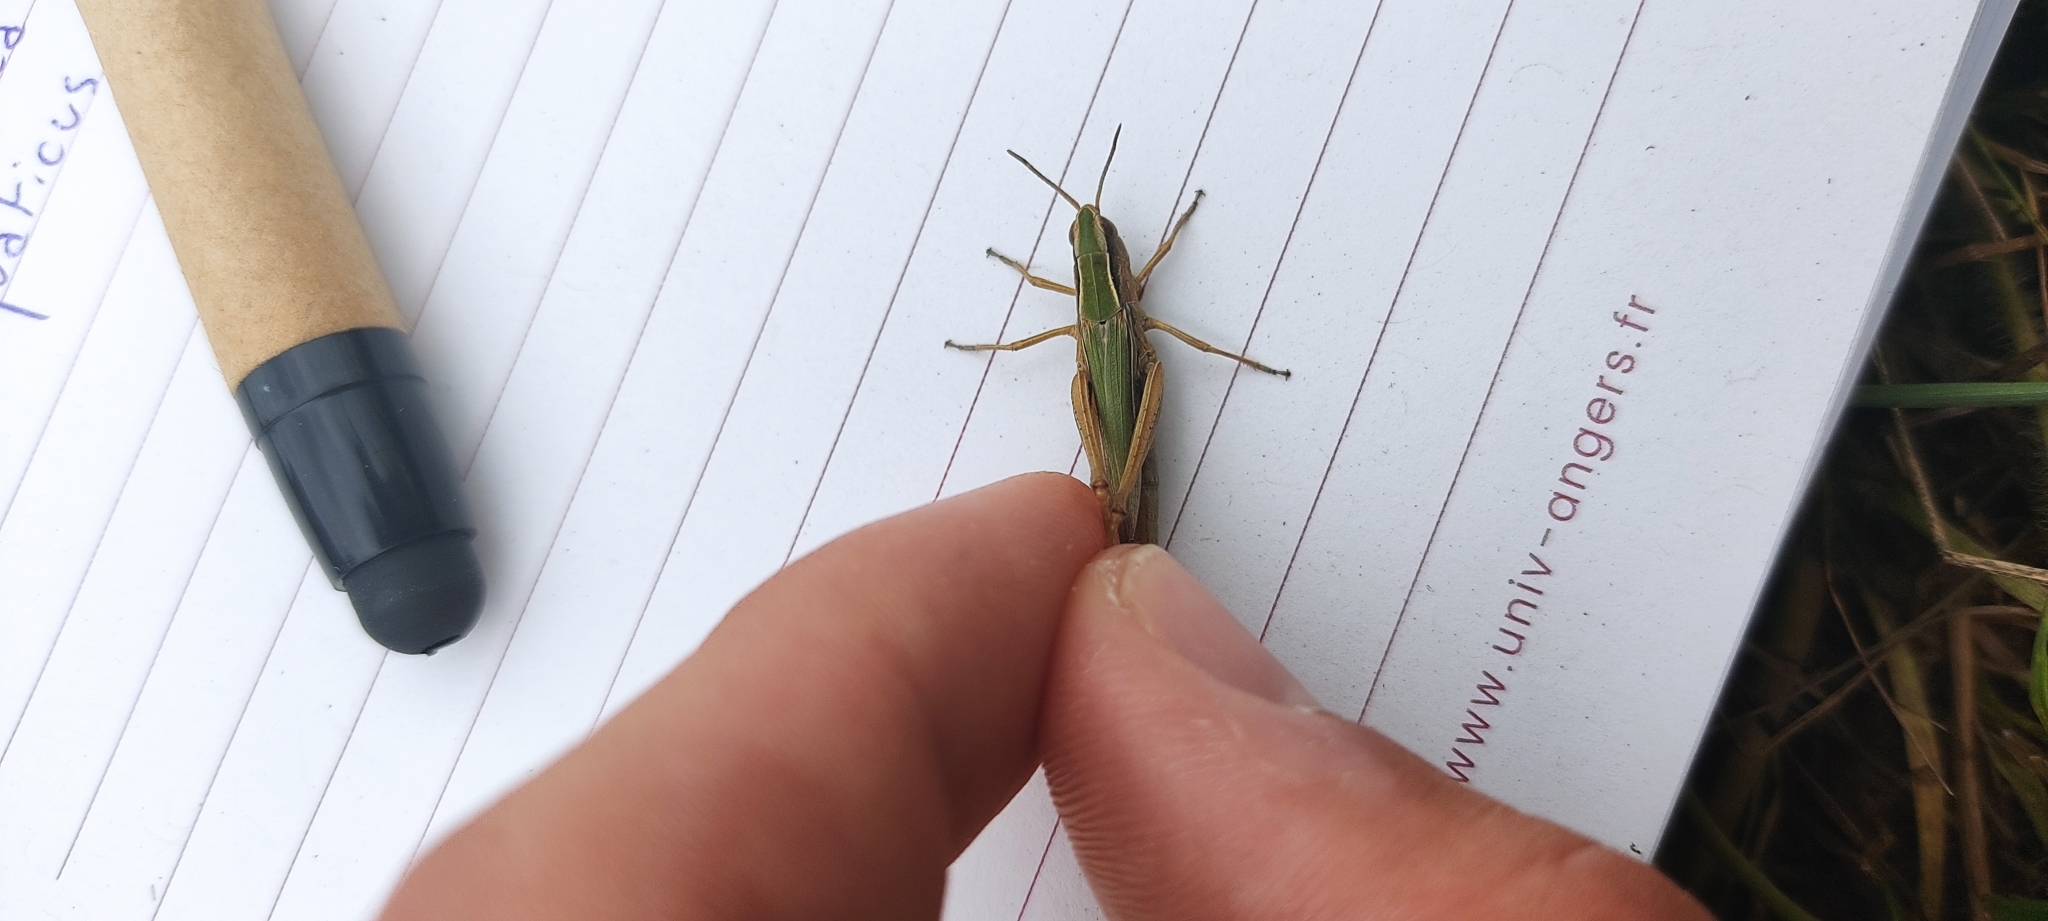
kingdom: Animalia
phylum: Arthropoda
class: Insecta
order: Orthoptera
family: Acrididae
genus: Chorthippus
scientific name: Chorthippus albomarginatus
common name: Lesser marsh grasshopper
